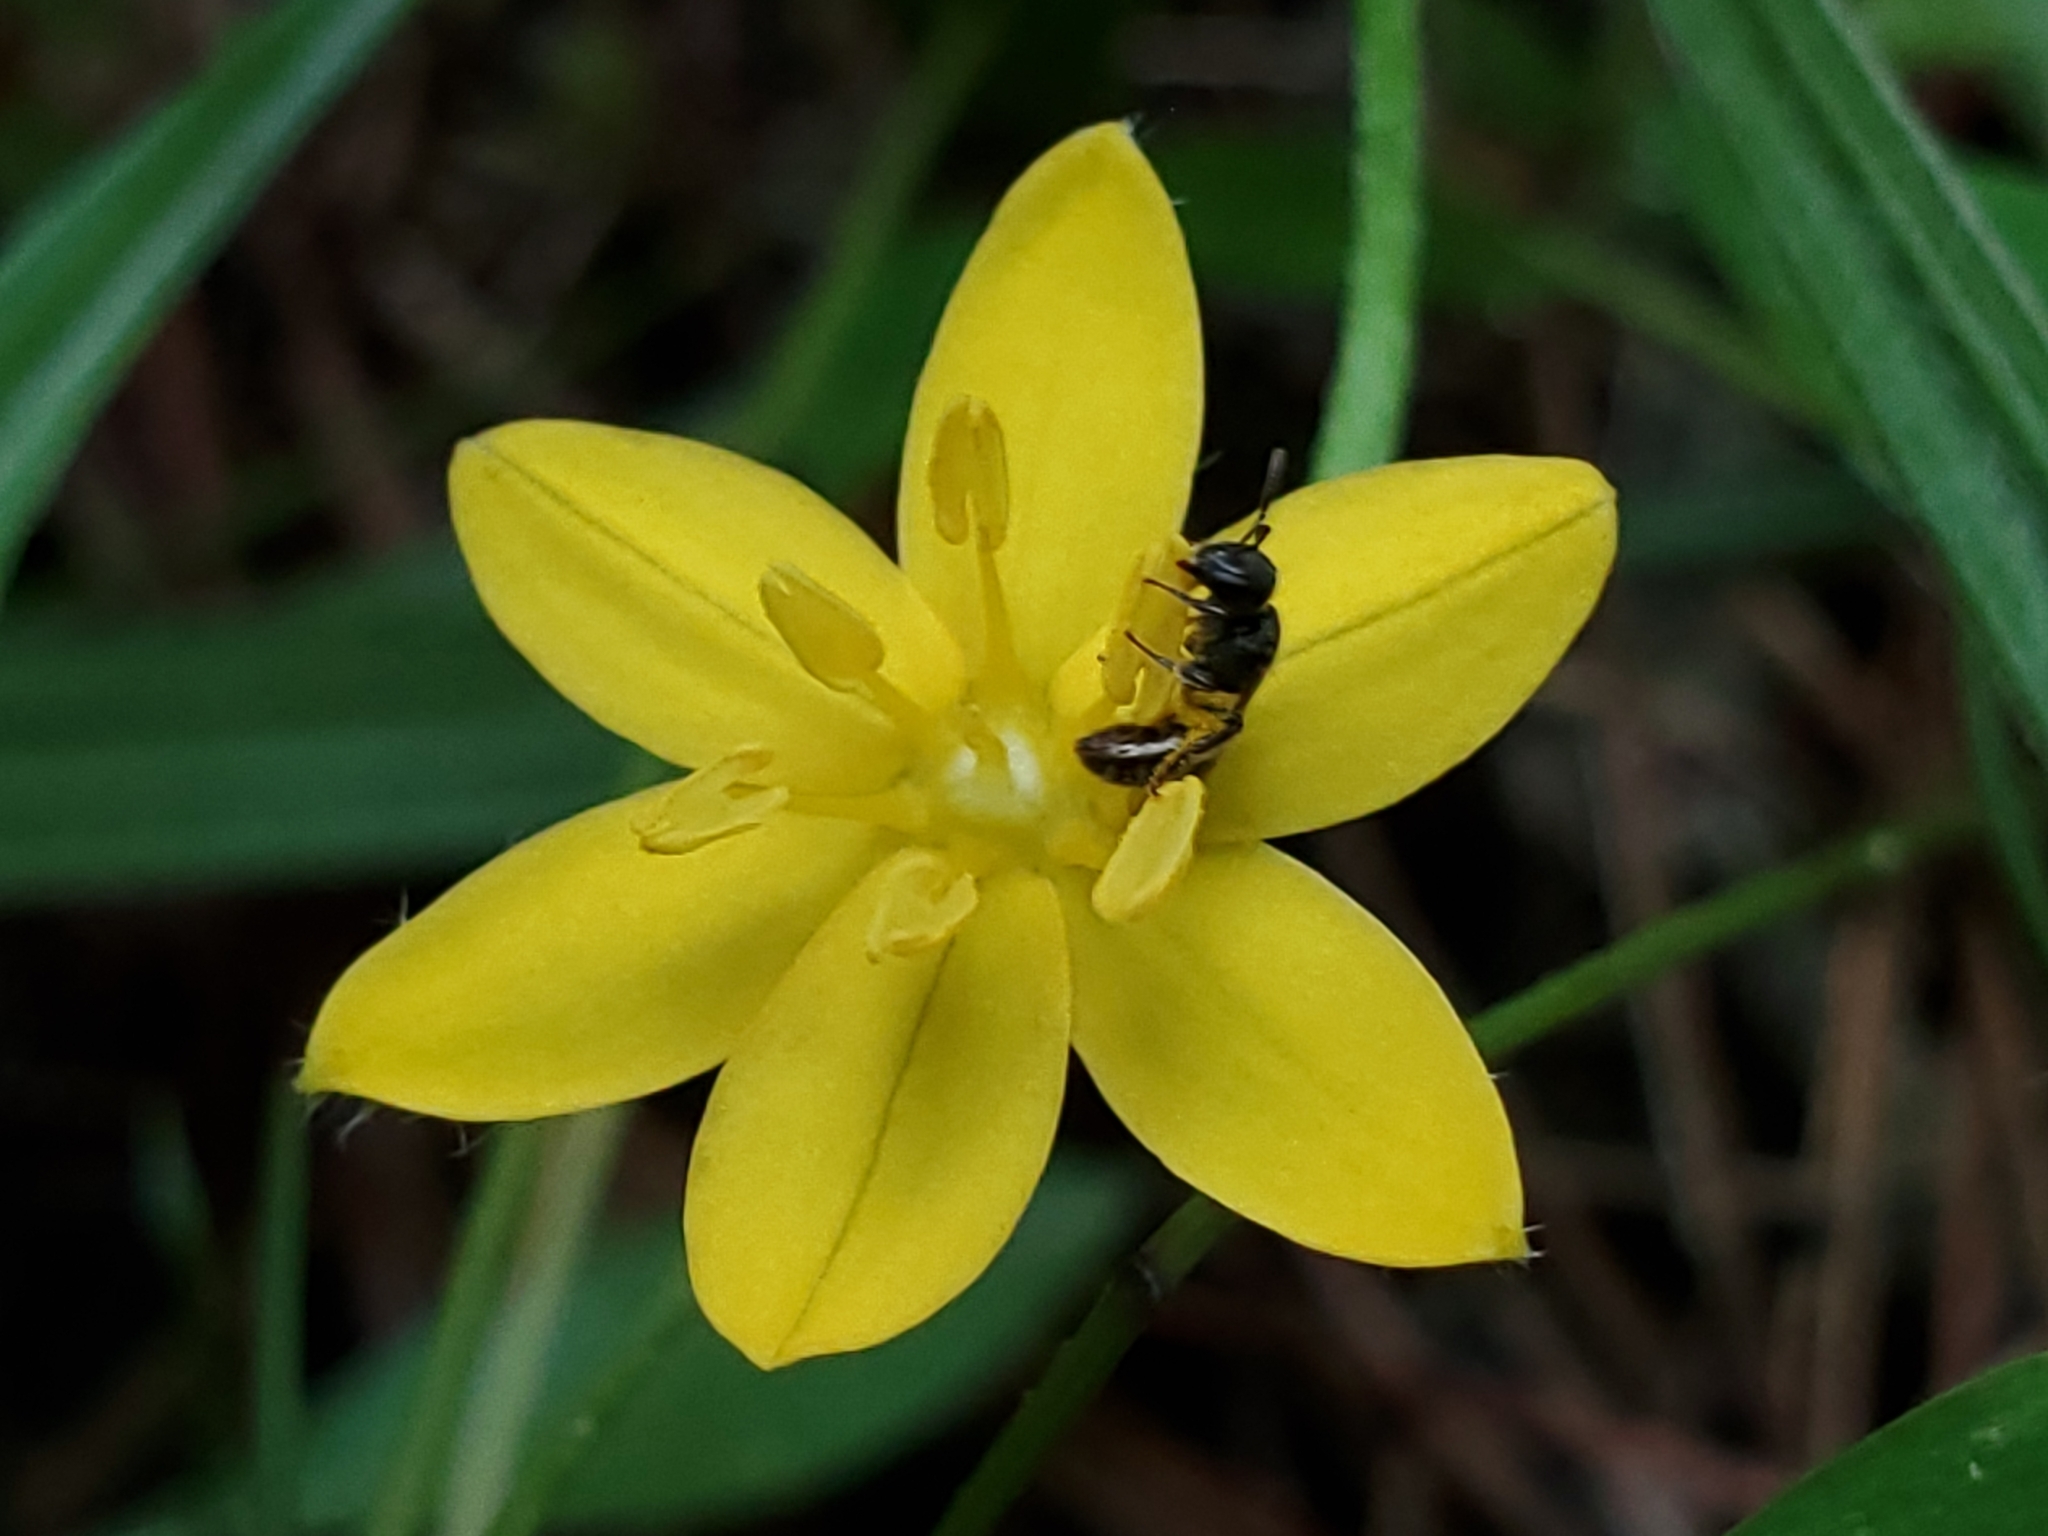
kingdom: Plantae
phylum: Tracheophyta
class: Liliopsida
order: Asparagales
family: Hypoxidaceae
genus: Hypoxis
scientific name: Hypoxis hirsuta
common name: Common goldstar
